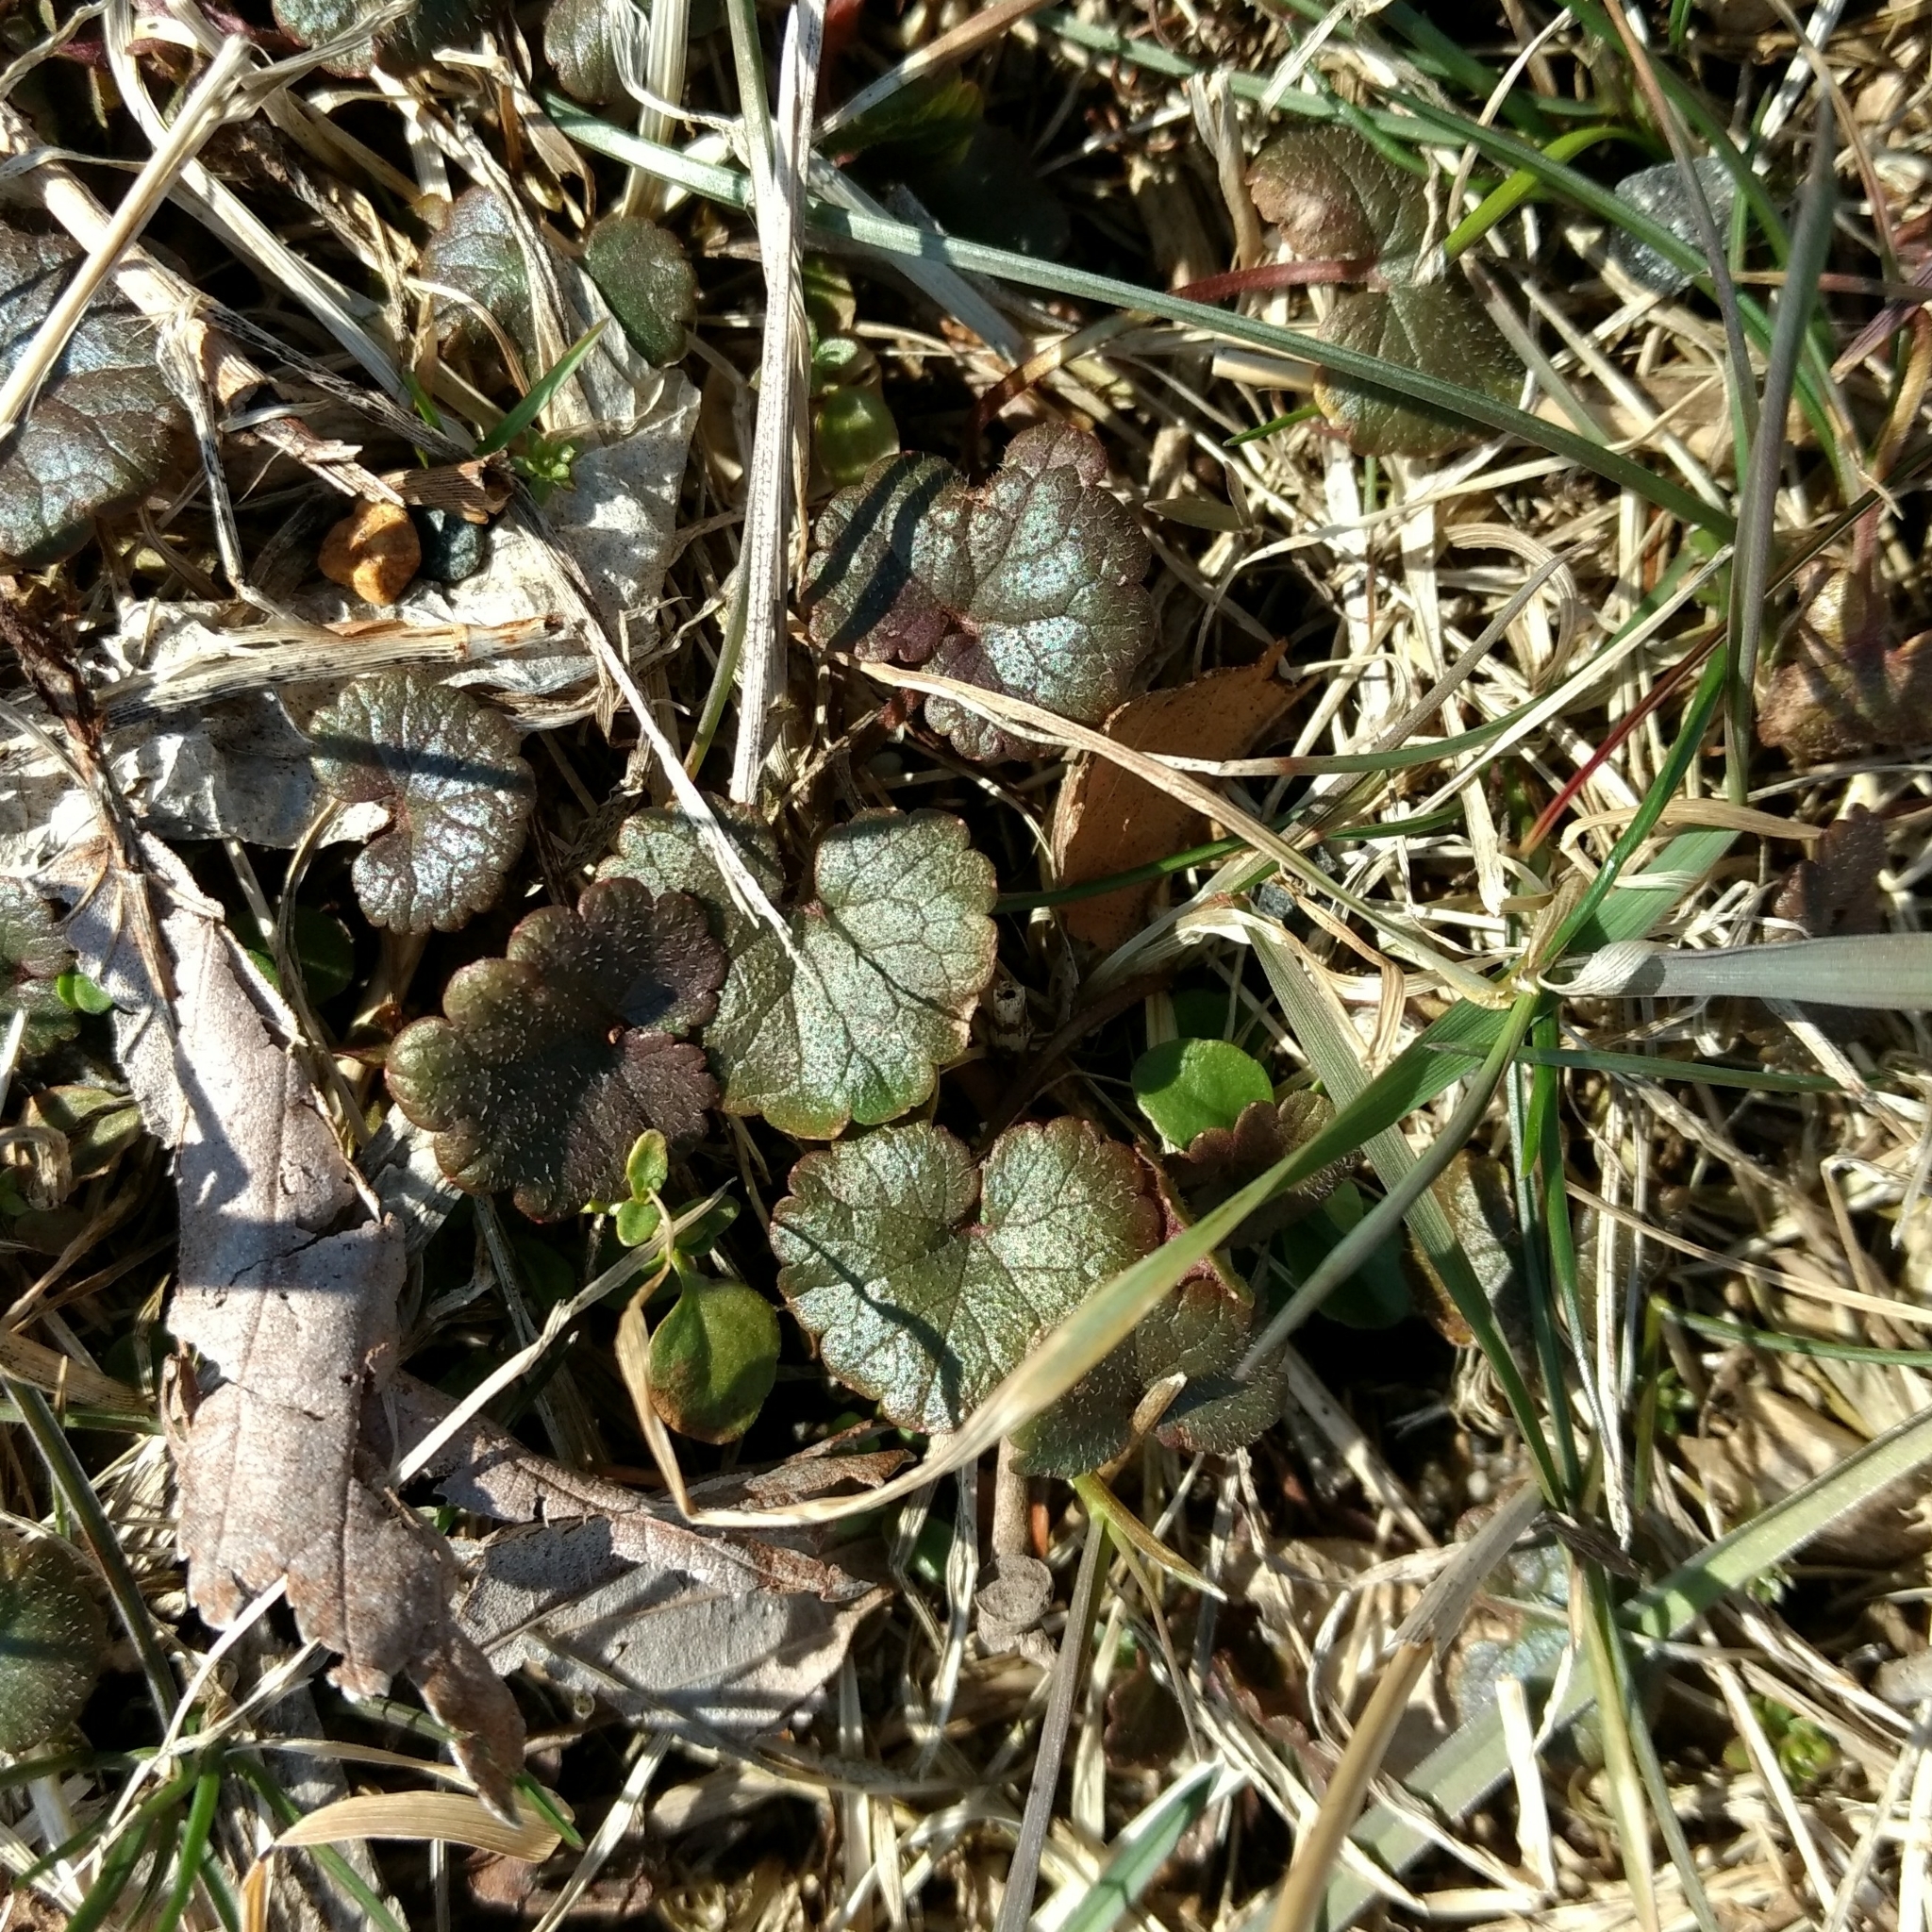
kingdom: Plantae
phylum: Tracheophyta
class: Magnoliopsida
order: Lamiales
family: Lamiaceae
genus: Glechoma
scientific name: Glechoma hederacea
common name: Ground ivy
